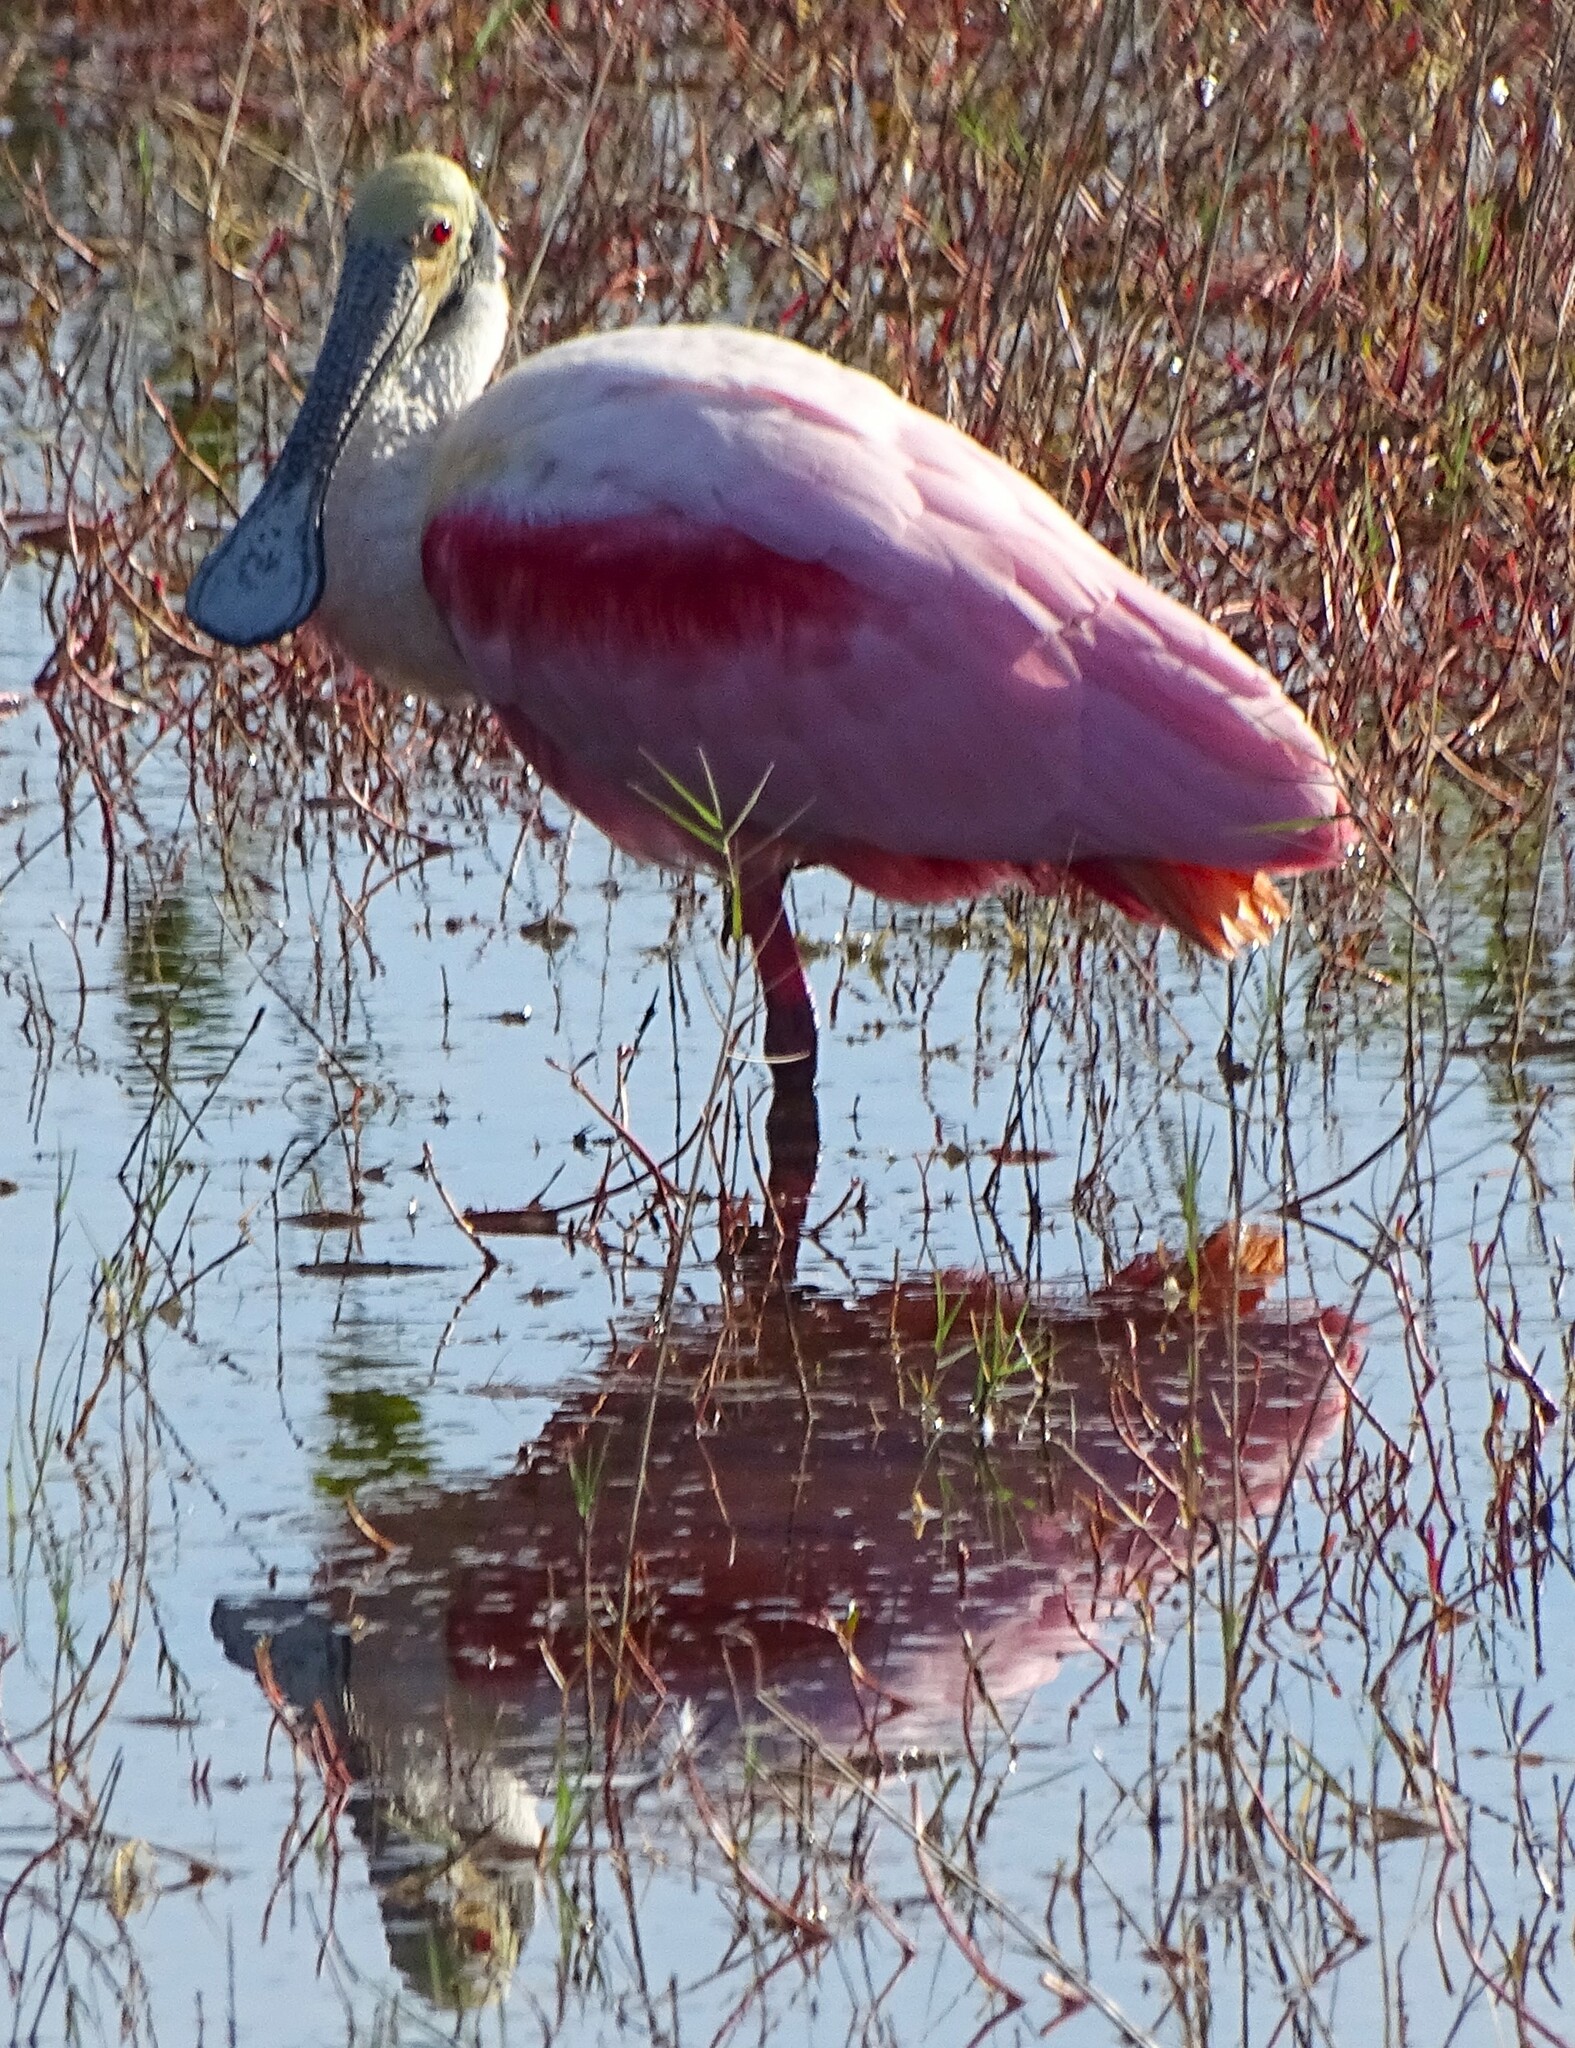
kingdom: Animalia
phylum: Chordata
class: Aves
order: Pelecaniformes
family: Threskiornithidae
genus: Platalea
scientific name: Platalea ajaja
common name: Roseate spoonbill
